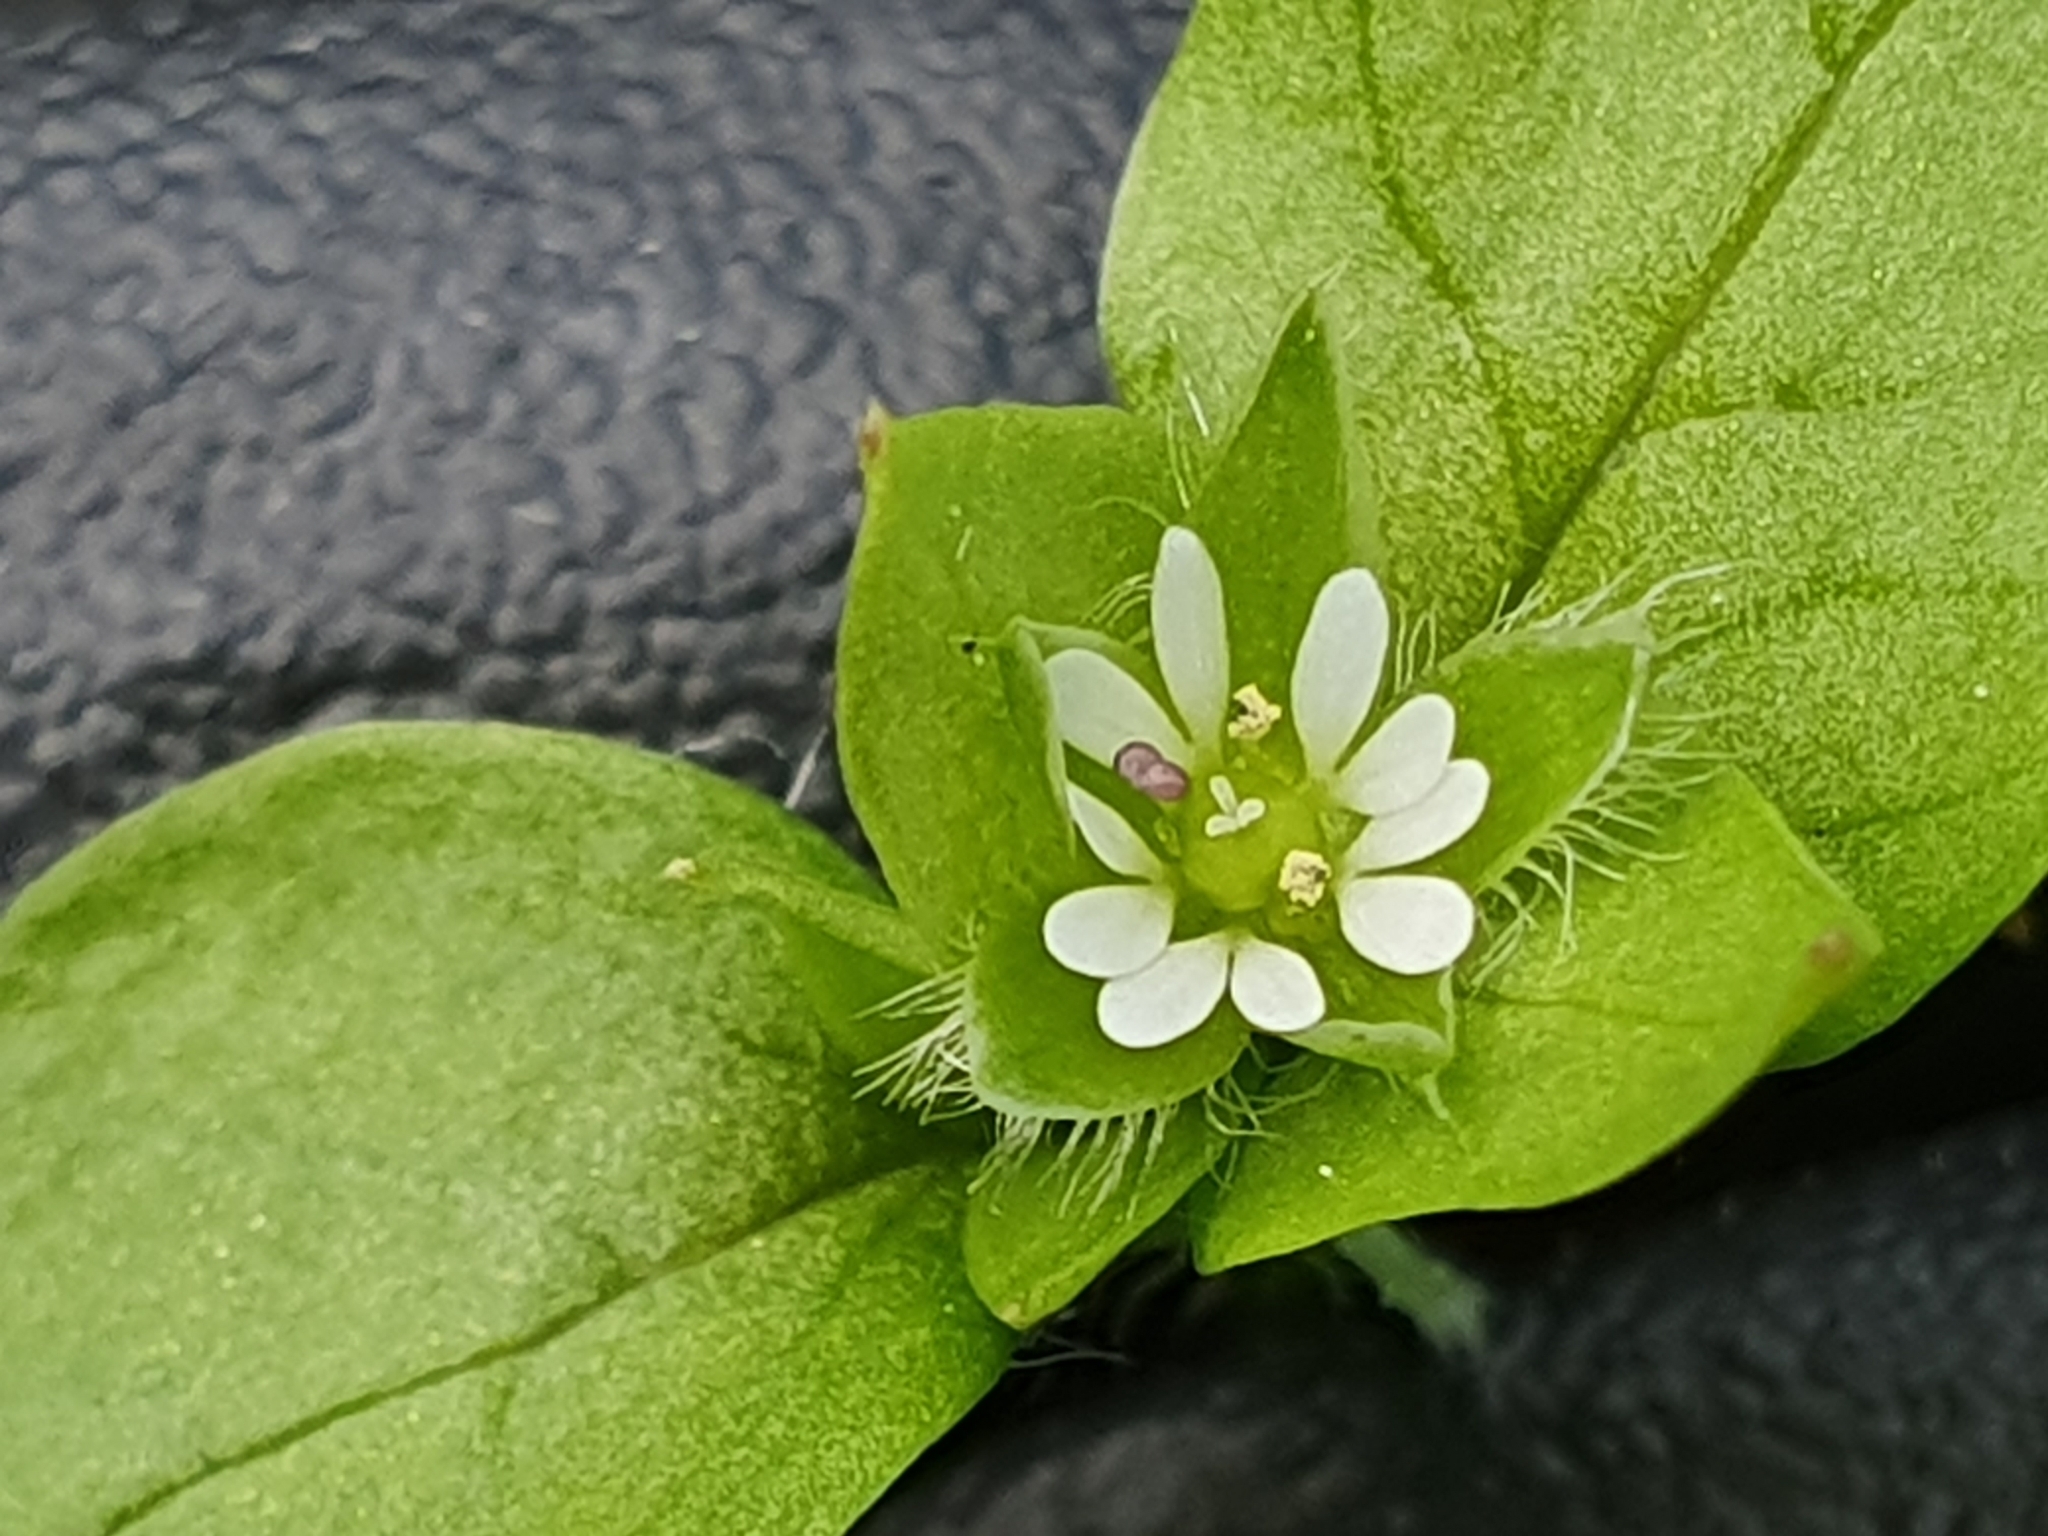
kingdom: Plantae
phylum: Tracheophyta
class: Magnoliopsida
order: Caryophyllales
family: Caryophyllaceae
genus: Stellaria
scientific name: Stellaria media
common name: Common chickweed
